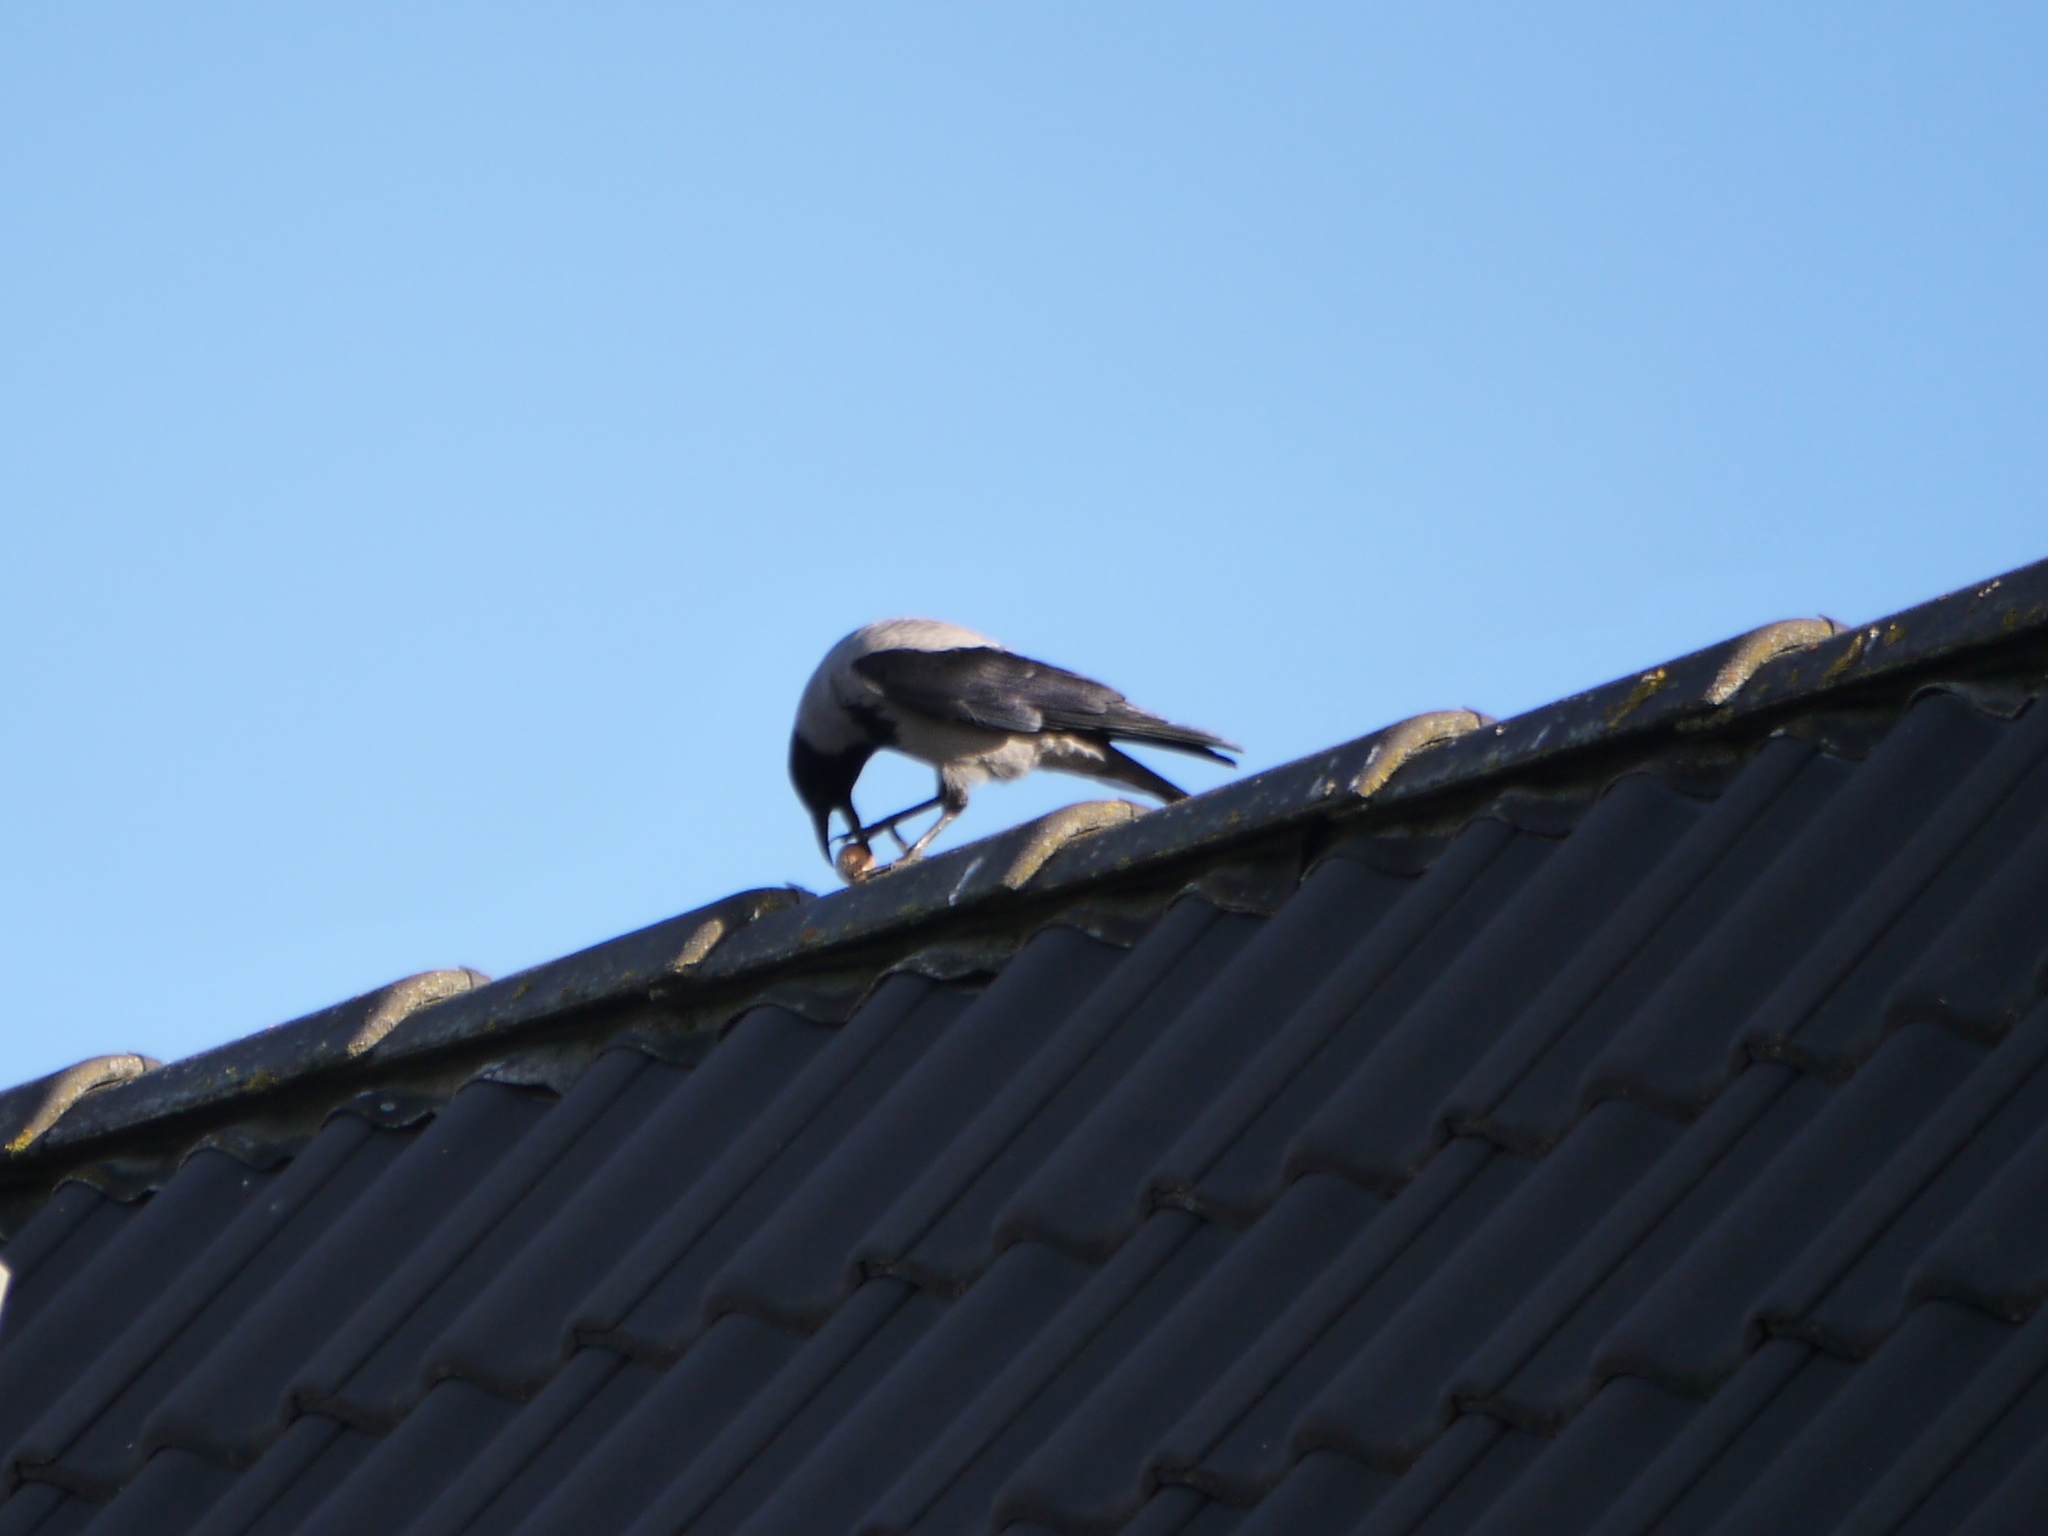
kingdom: Animalia
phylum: Chordata
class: Aves
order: Passeriformes
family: Corvidae
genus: Corvus
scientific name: Corvus cornix
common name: Hooded crow
